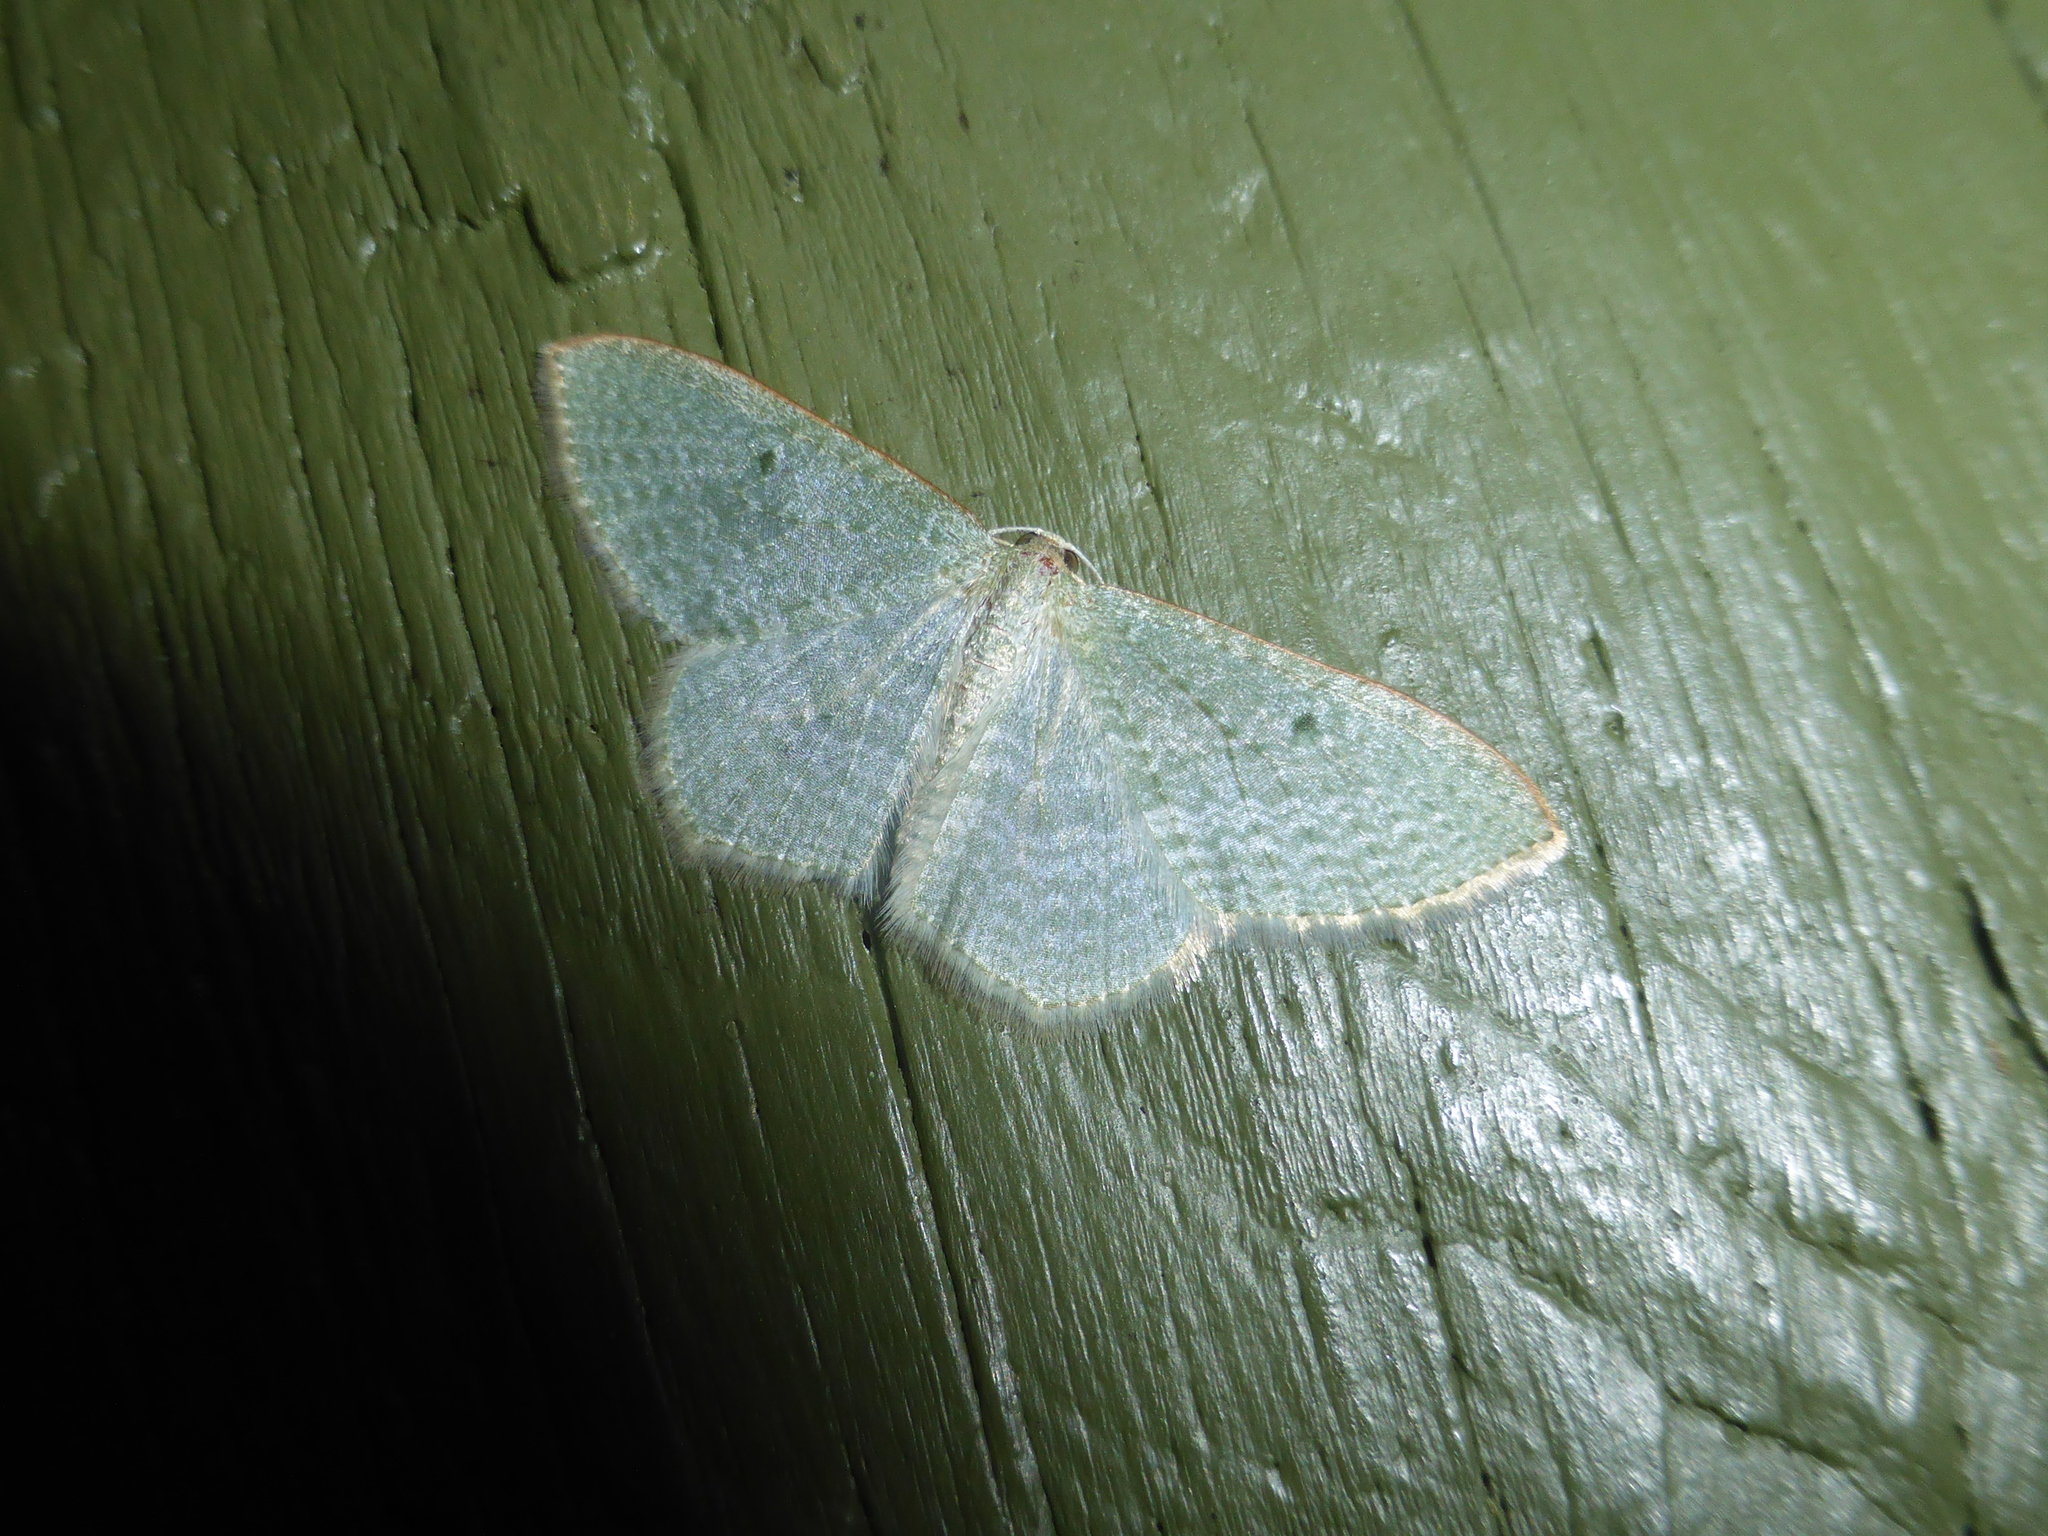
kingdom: Animalia
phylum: Arthropoda
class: Insecta
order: Lepidoptera
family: Geometridae
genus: Poecilasthena
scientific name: Poecilasthena pulchraria
